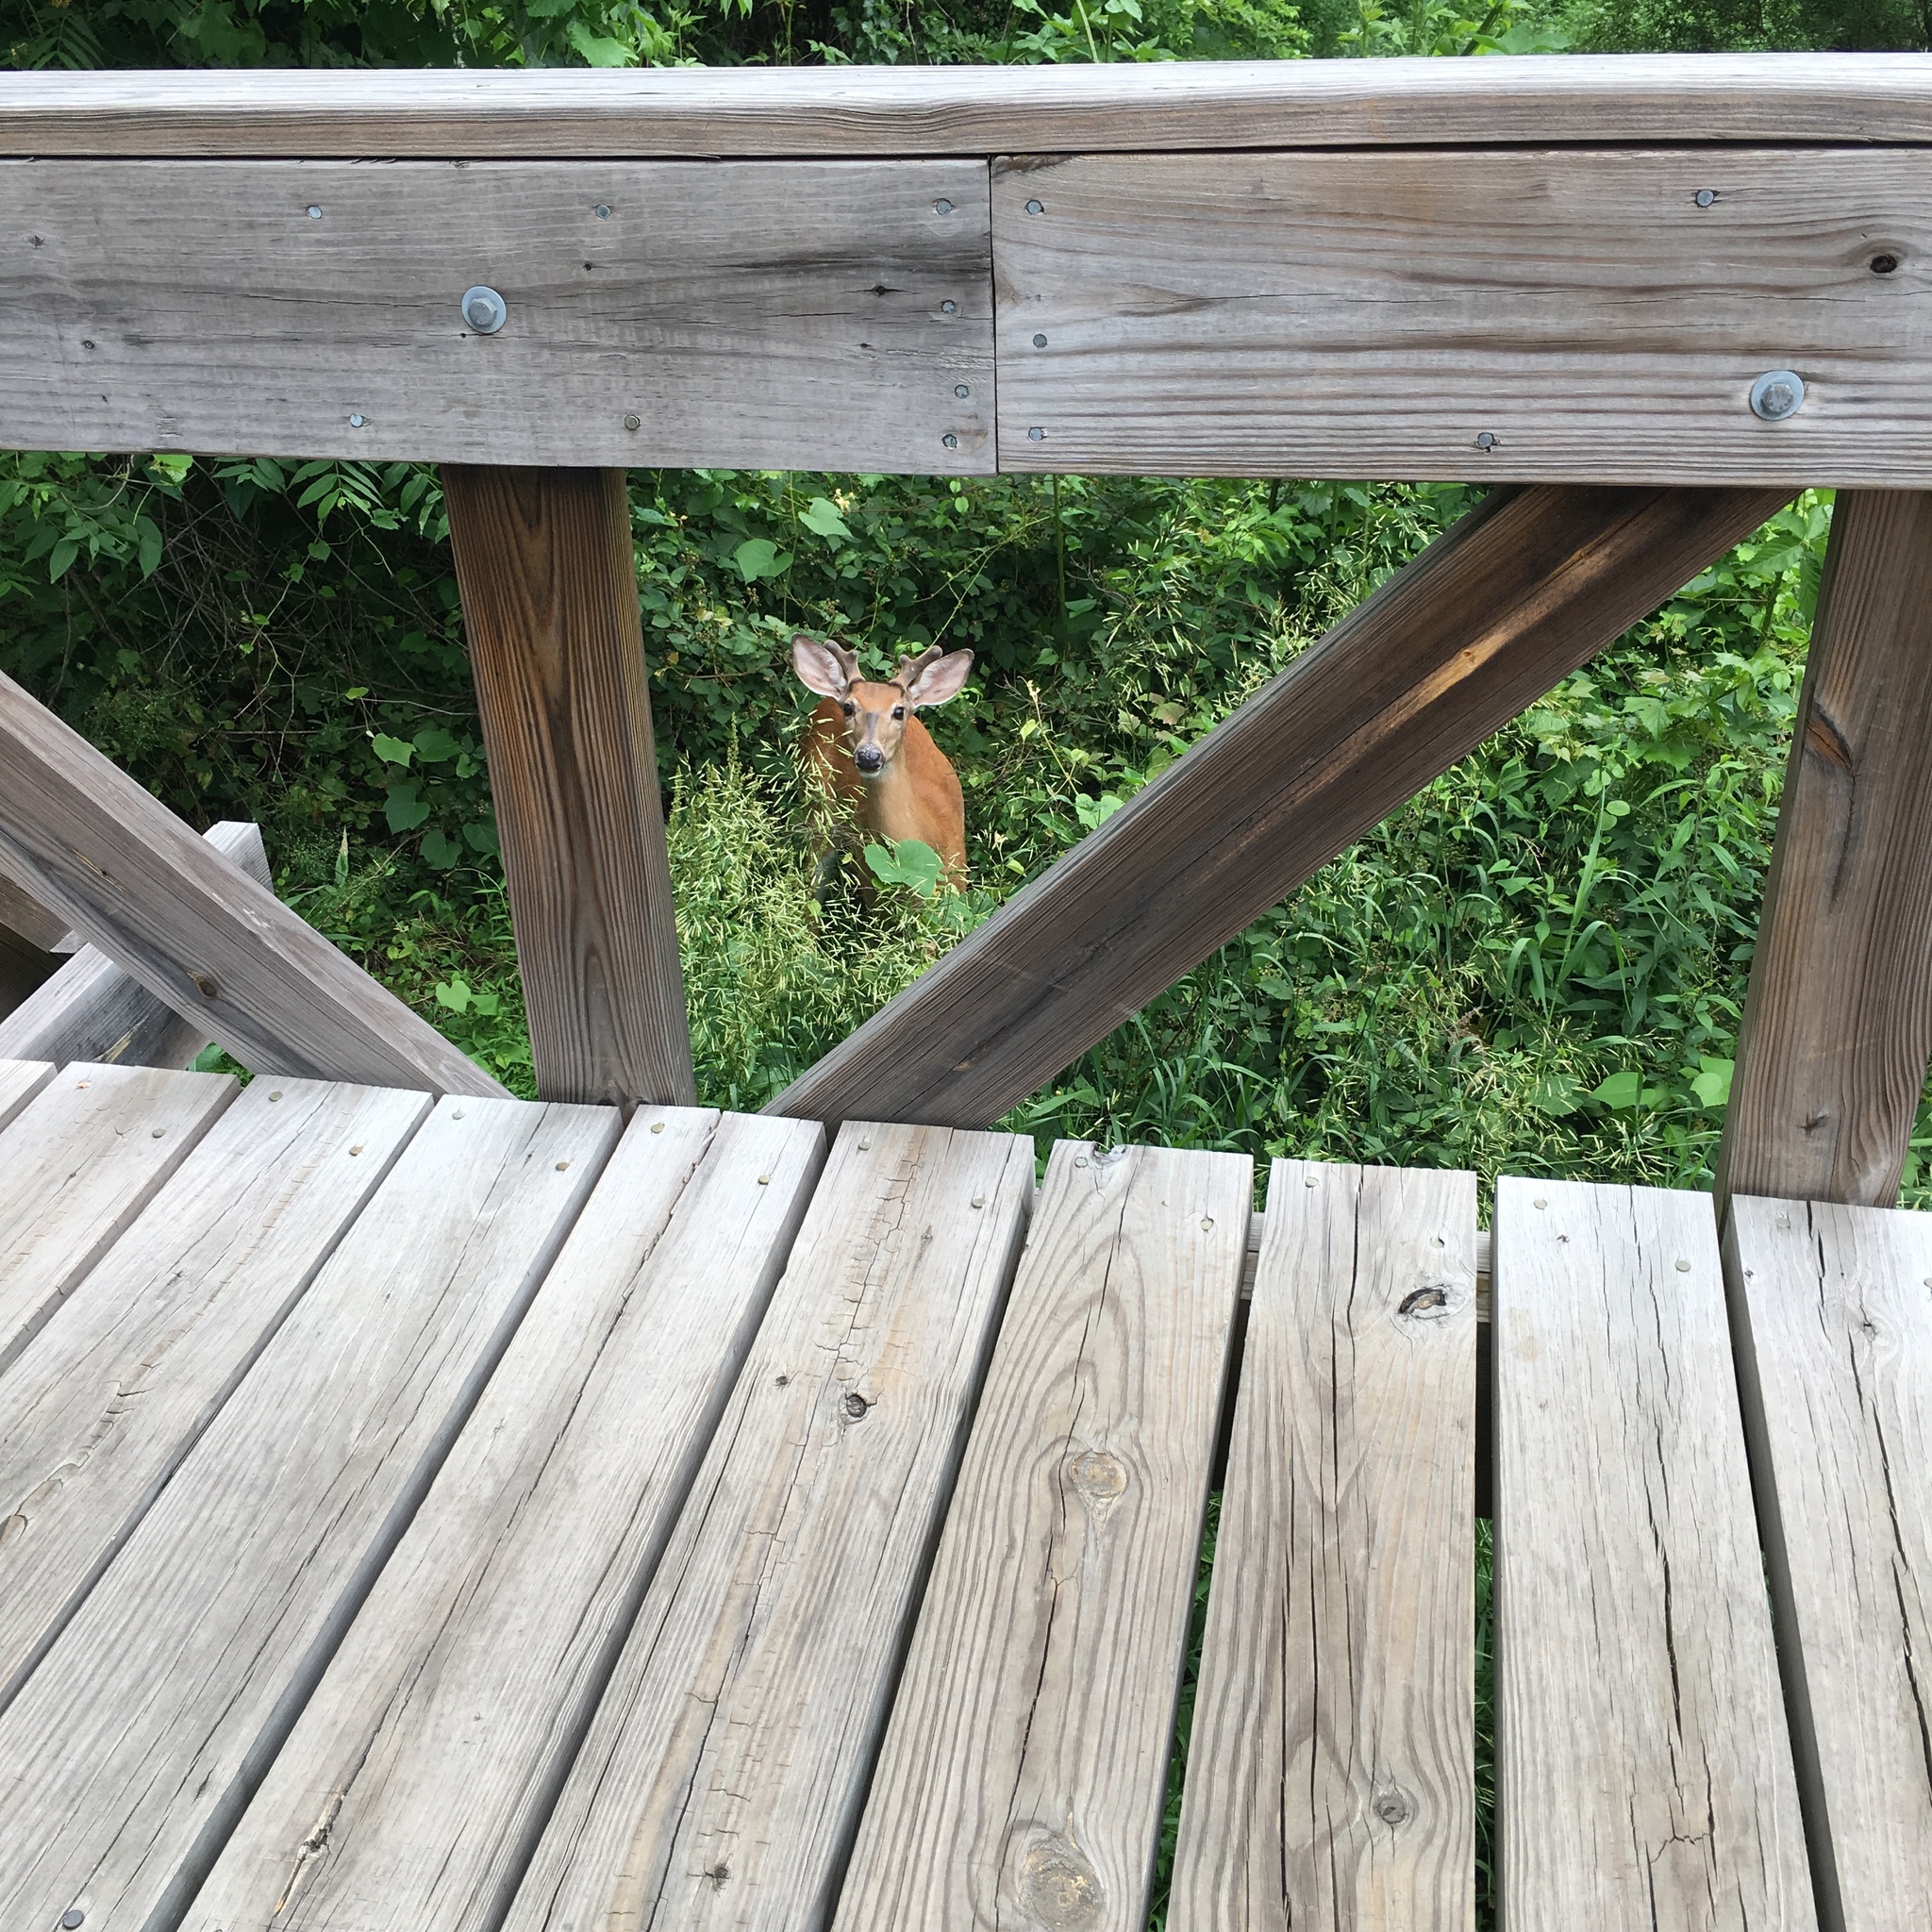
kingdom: Animalia
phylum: Chordata
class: Mammalia
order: Artiodactyla
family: Cervidae
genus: Odocoileus
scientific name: Odocoileus virginianus
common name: White-tailed deer
